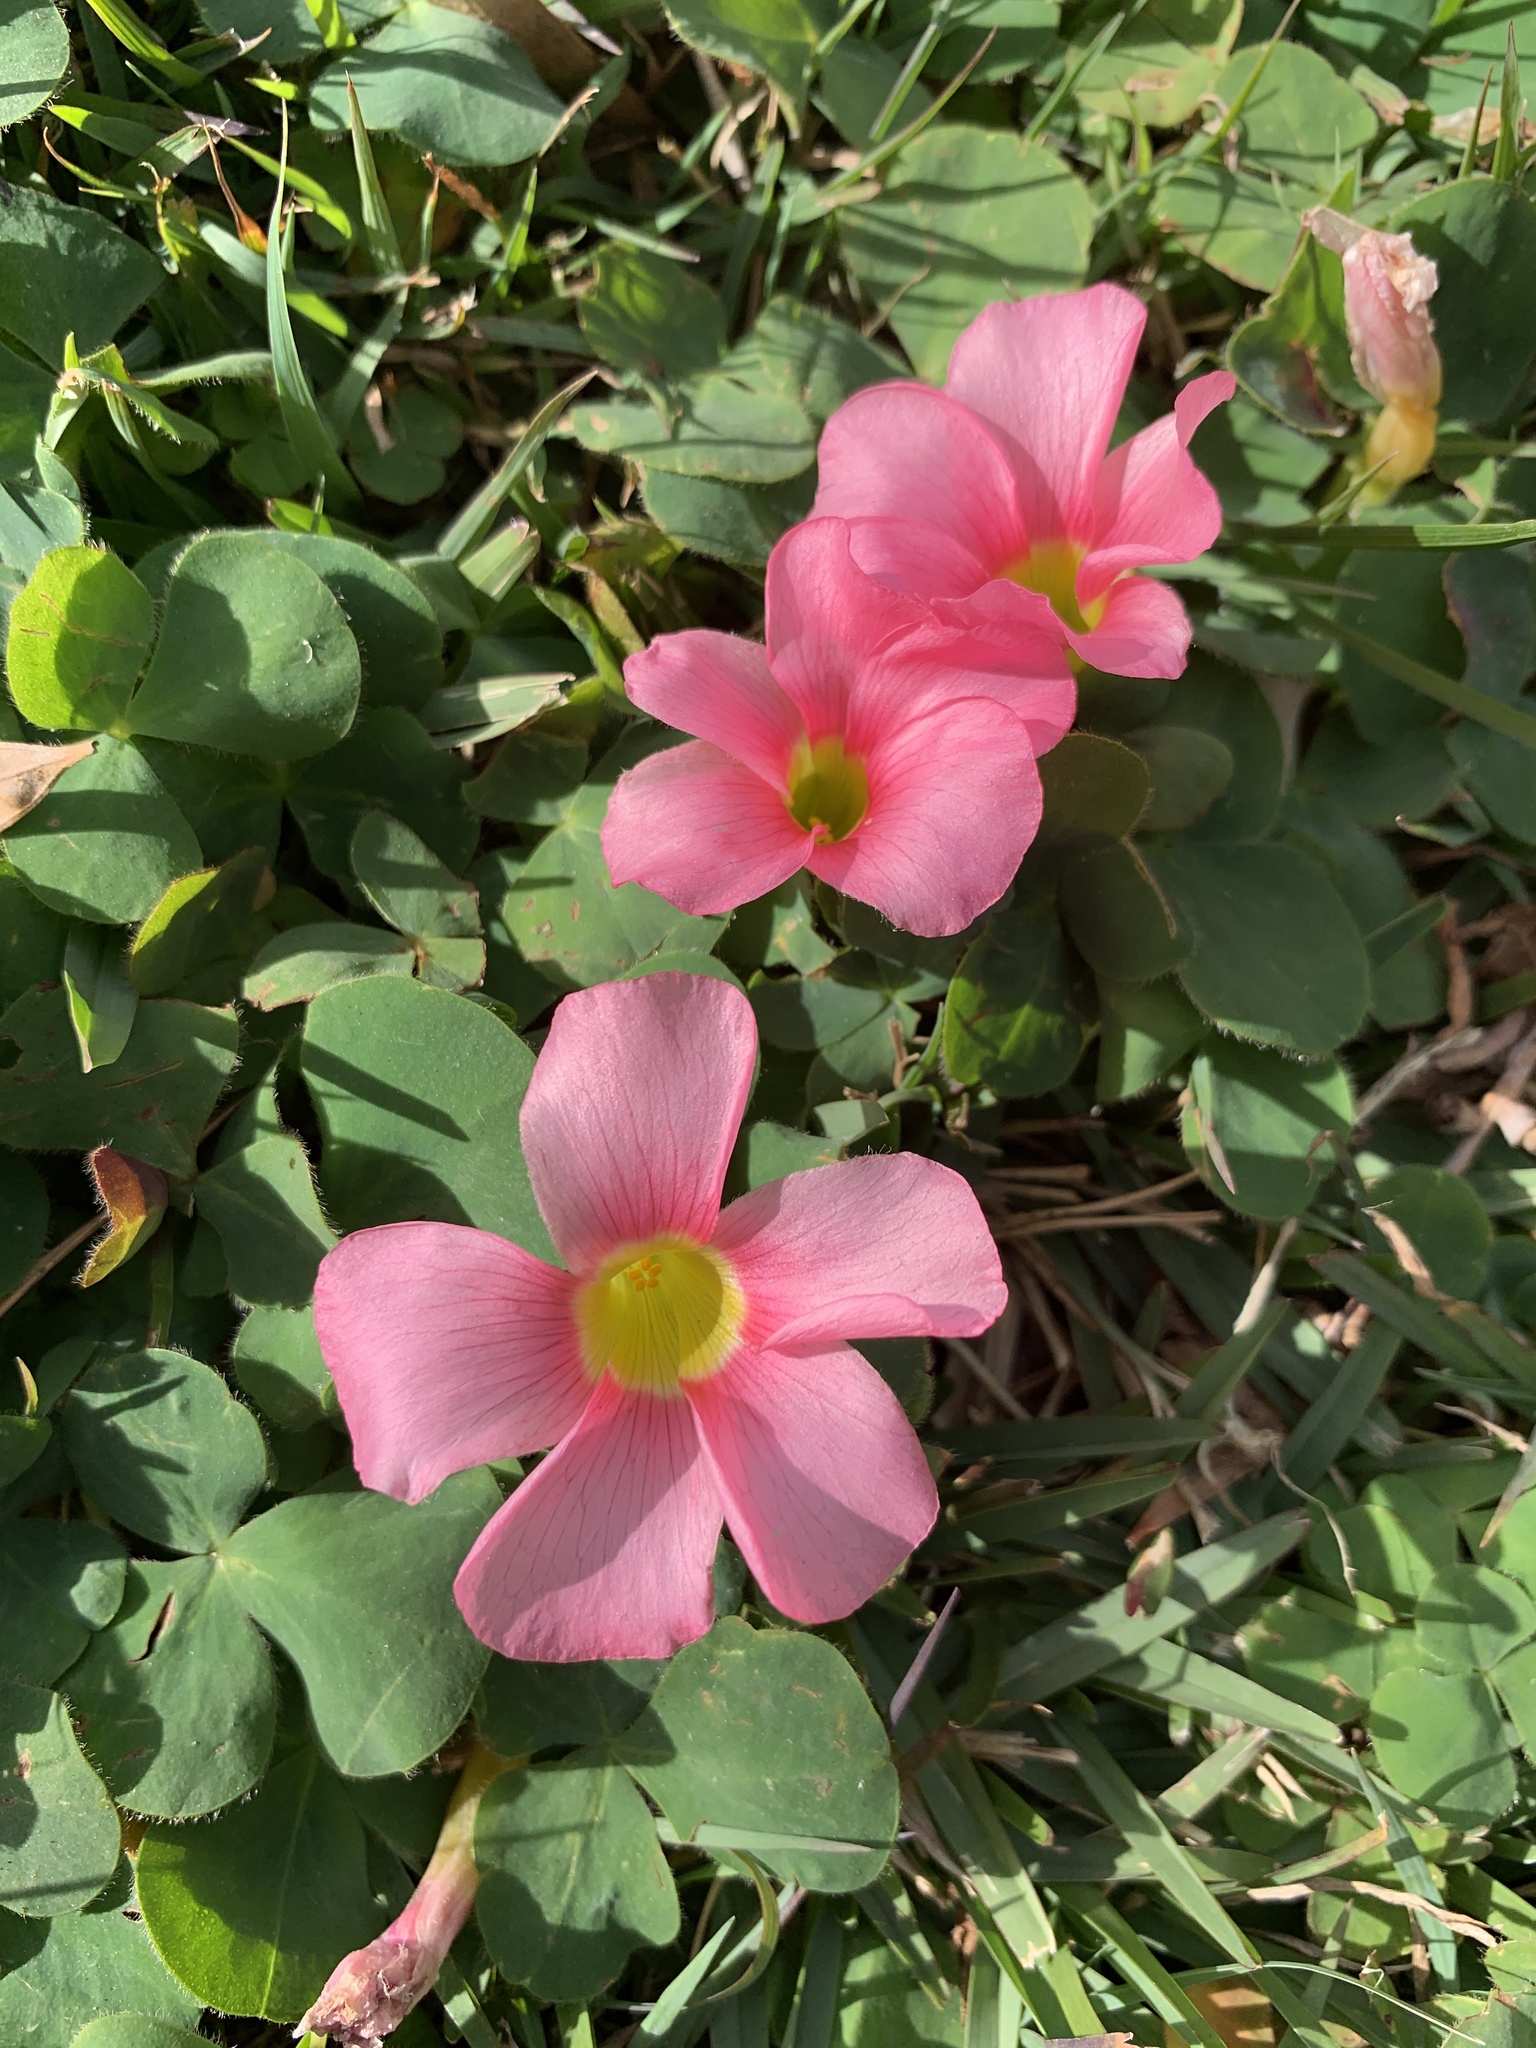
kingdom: Plantae
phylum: Tracheophyta
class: Magnoliopsida
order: Oxalidales
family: Oxalidaceae
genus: Oxalis
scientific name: Oxalis purpurea
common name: Purple woodsorrel
